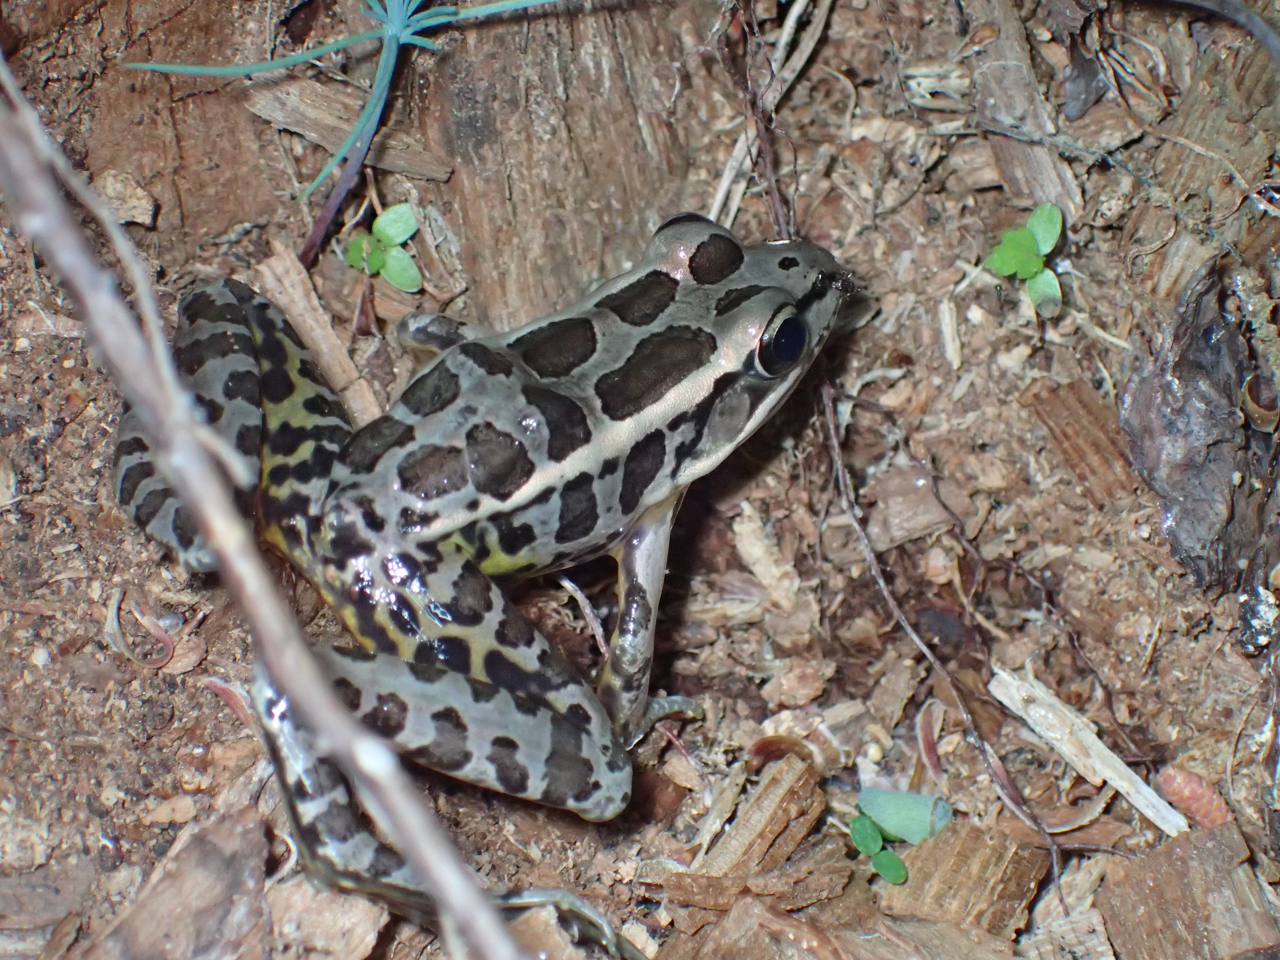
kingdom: Animalia
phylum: Chordata
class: Amphibia
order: Anura
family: Ranidae
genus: Lithobates
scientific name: Lithobates palustris
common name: Pickerel frog
